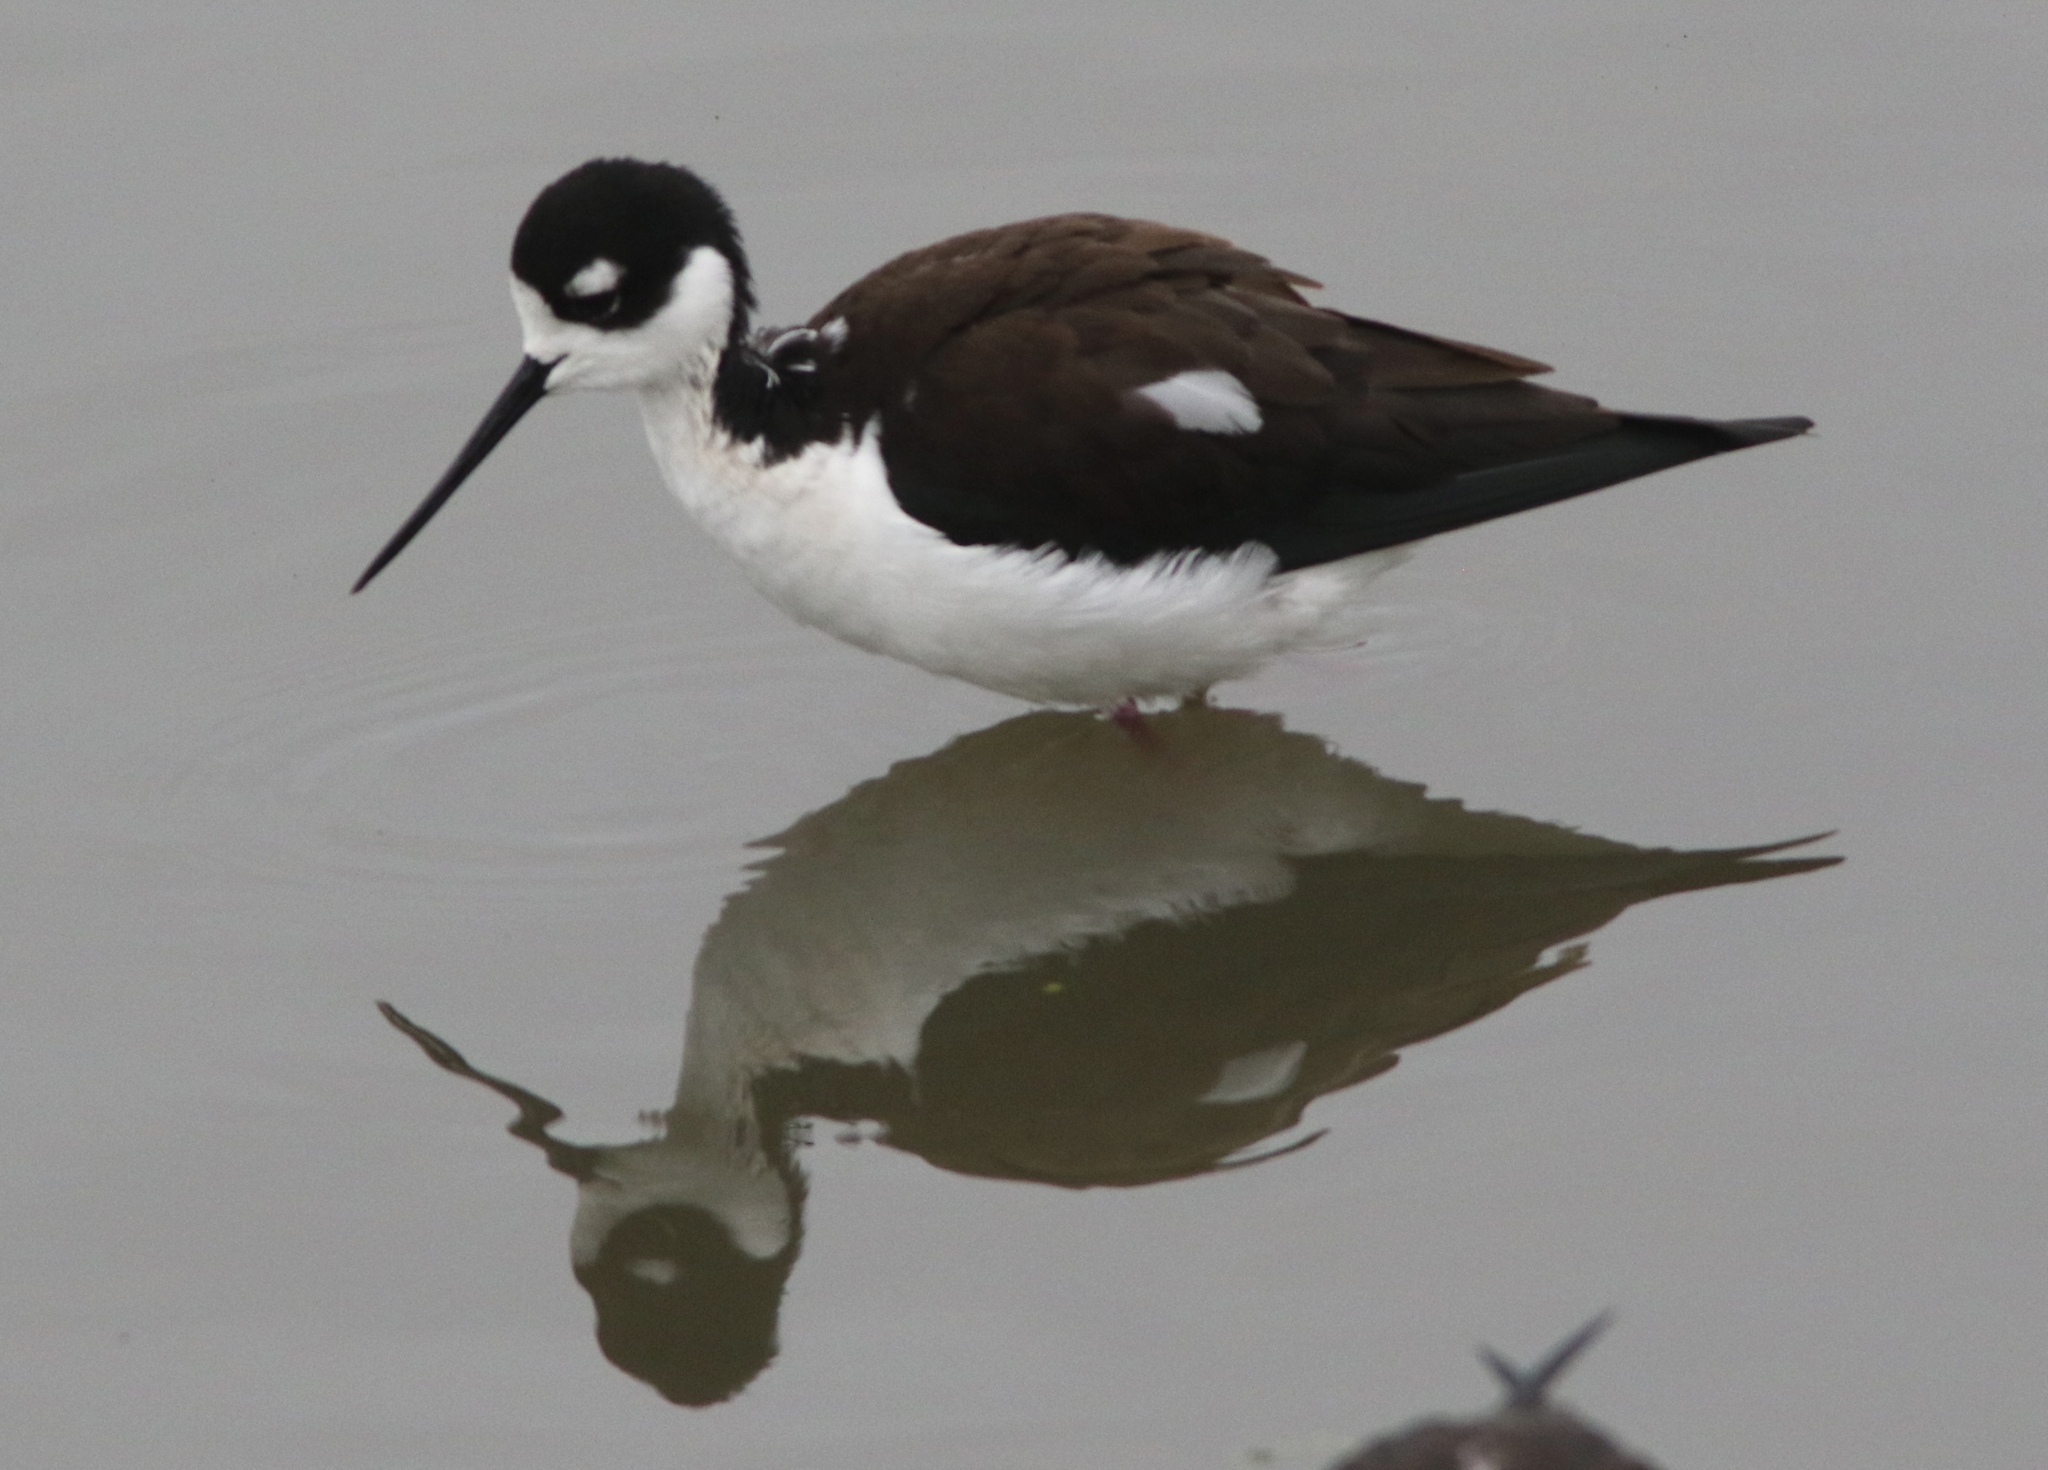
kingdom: Animalia
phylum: Chordata
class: Aves
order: Charadriiformes
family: Recurvirostridae
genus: Himantopus
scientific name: Himantopus mexicanus
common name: Black-necked stilt
